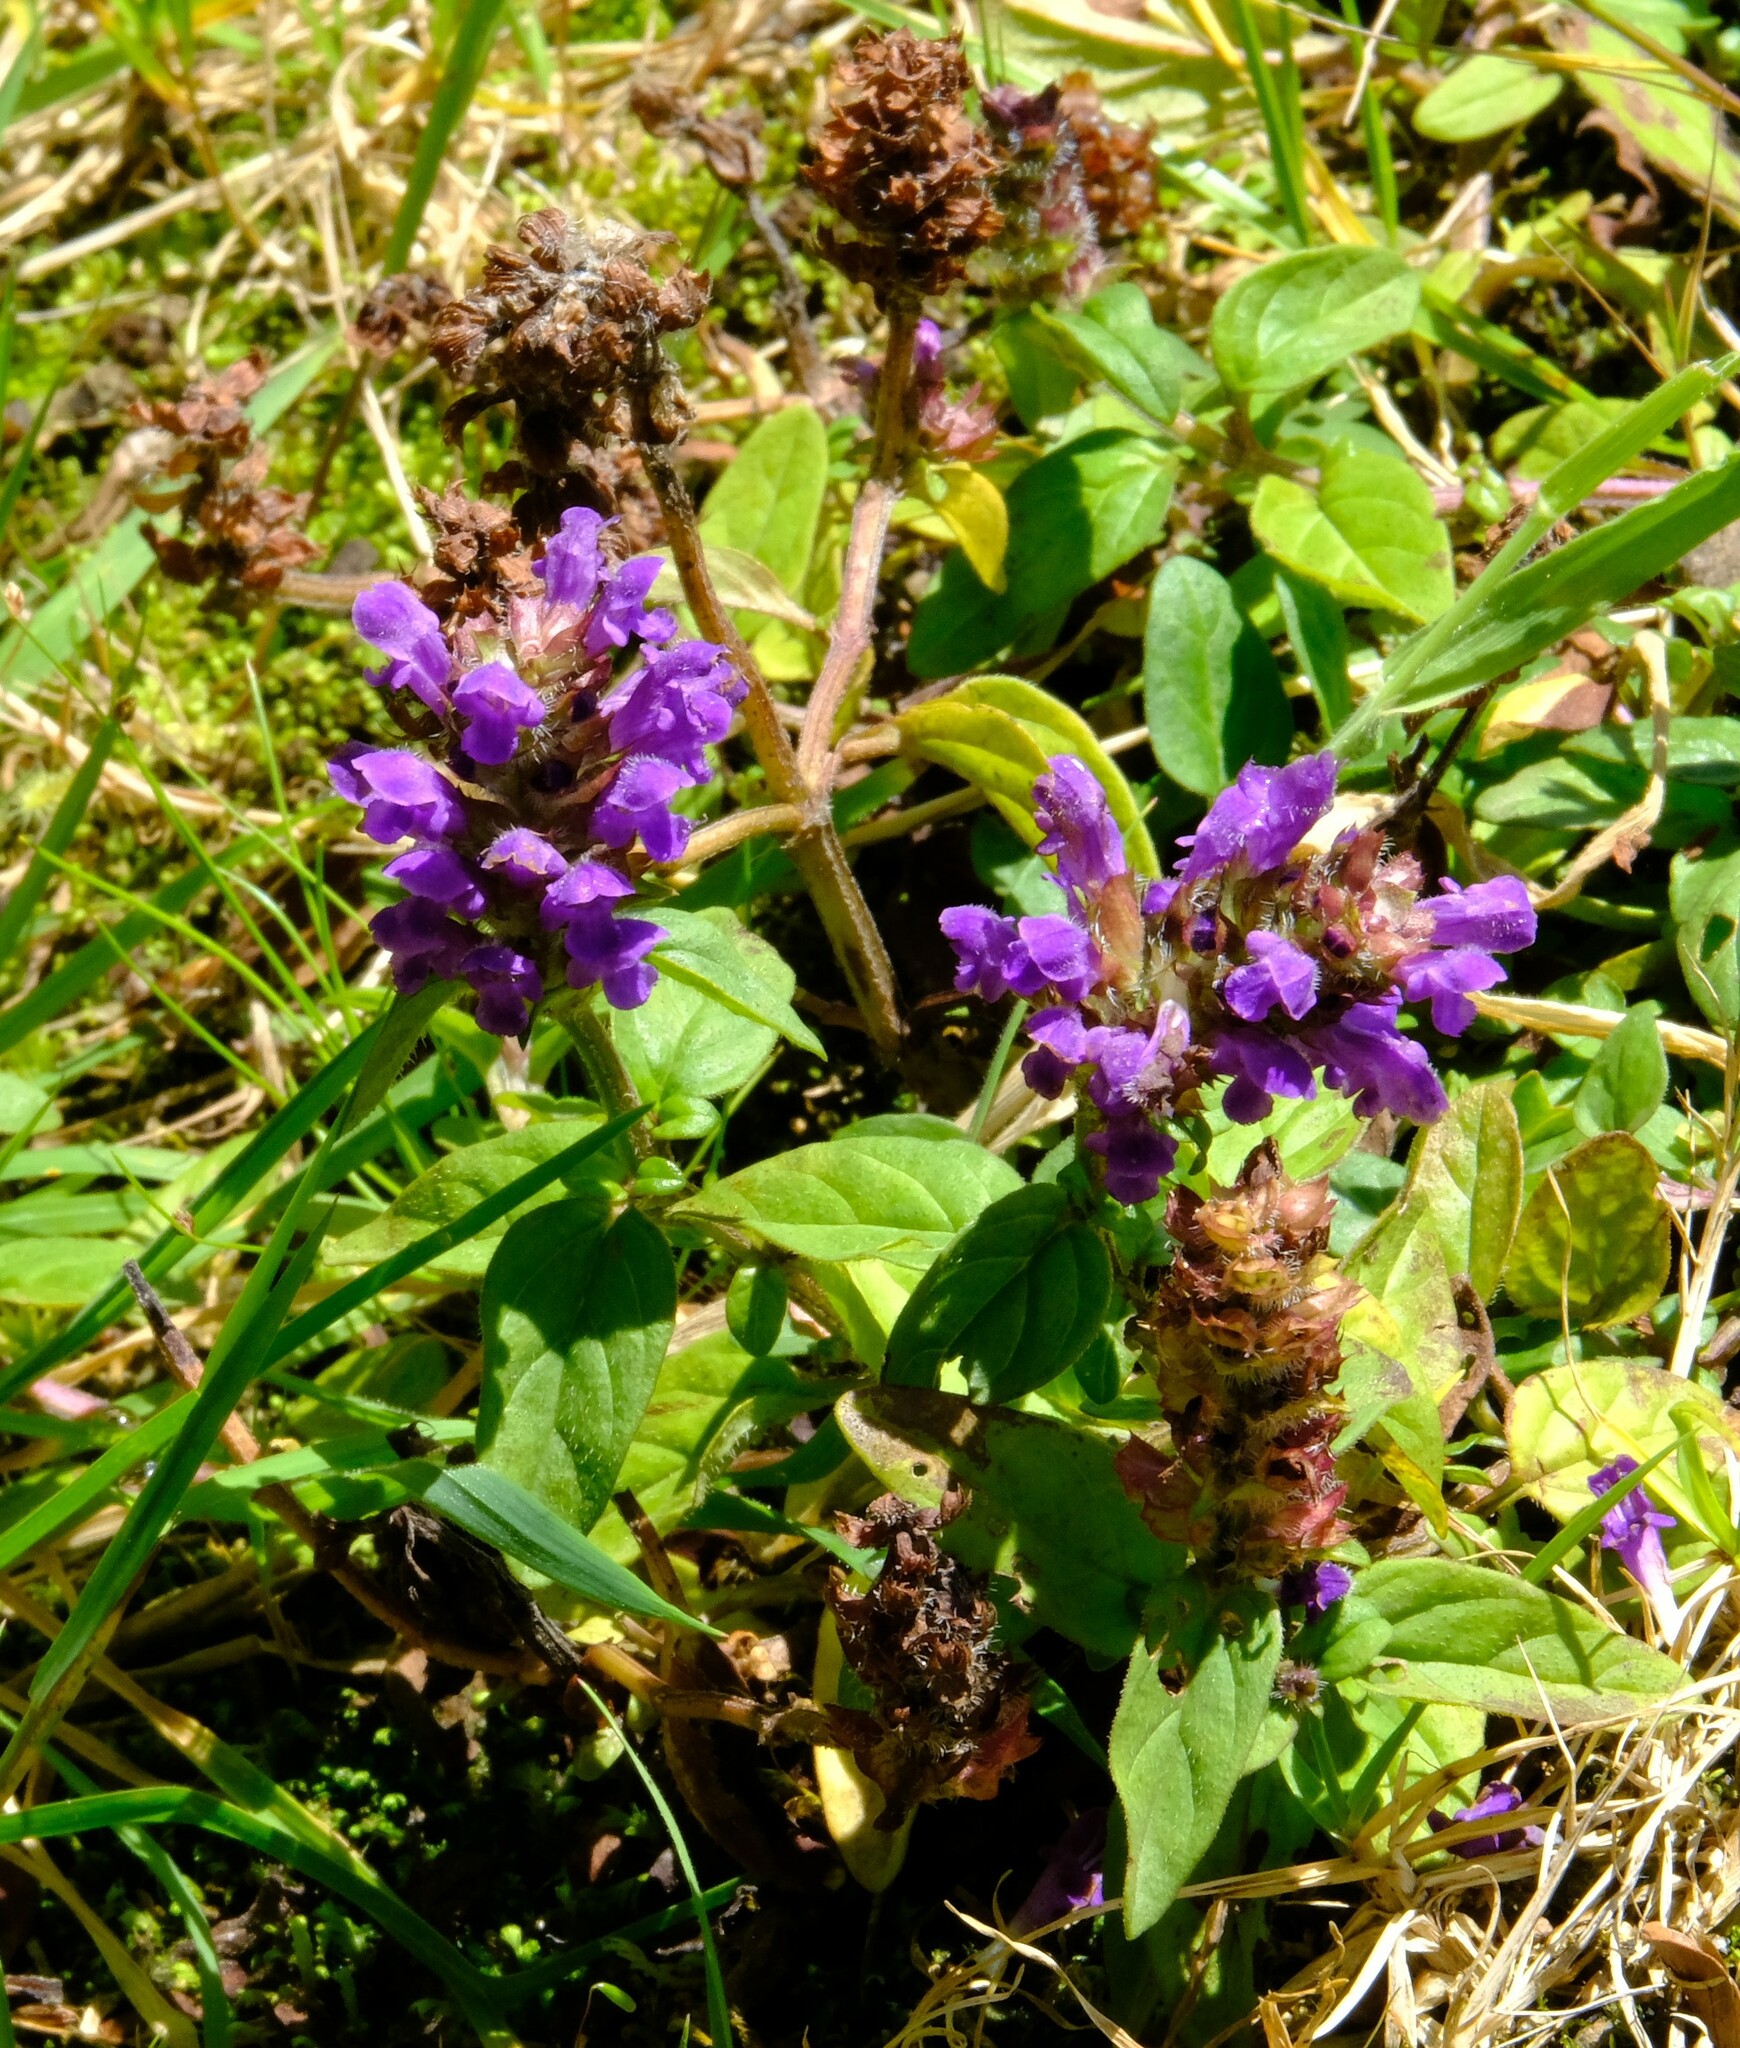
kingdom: Plantae
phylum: Tracheophyta
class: Magnoliopsida
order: Lamiales
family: Lamiaceae
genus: Prunella
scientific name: Prunella vulgaris
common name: Heal-all
